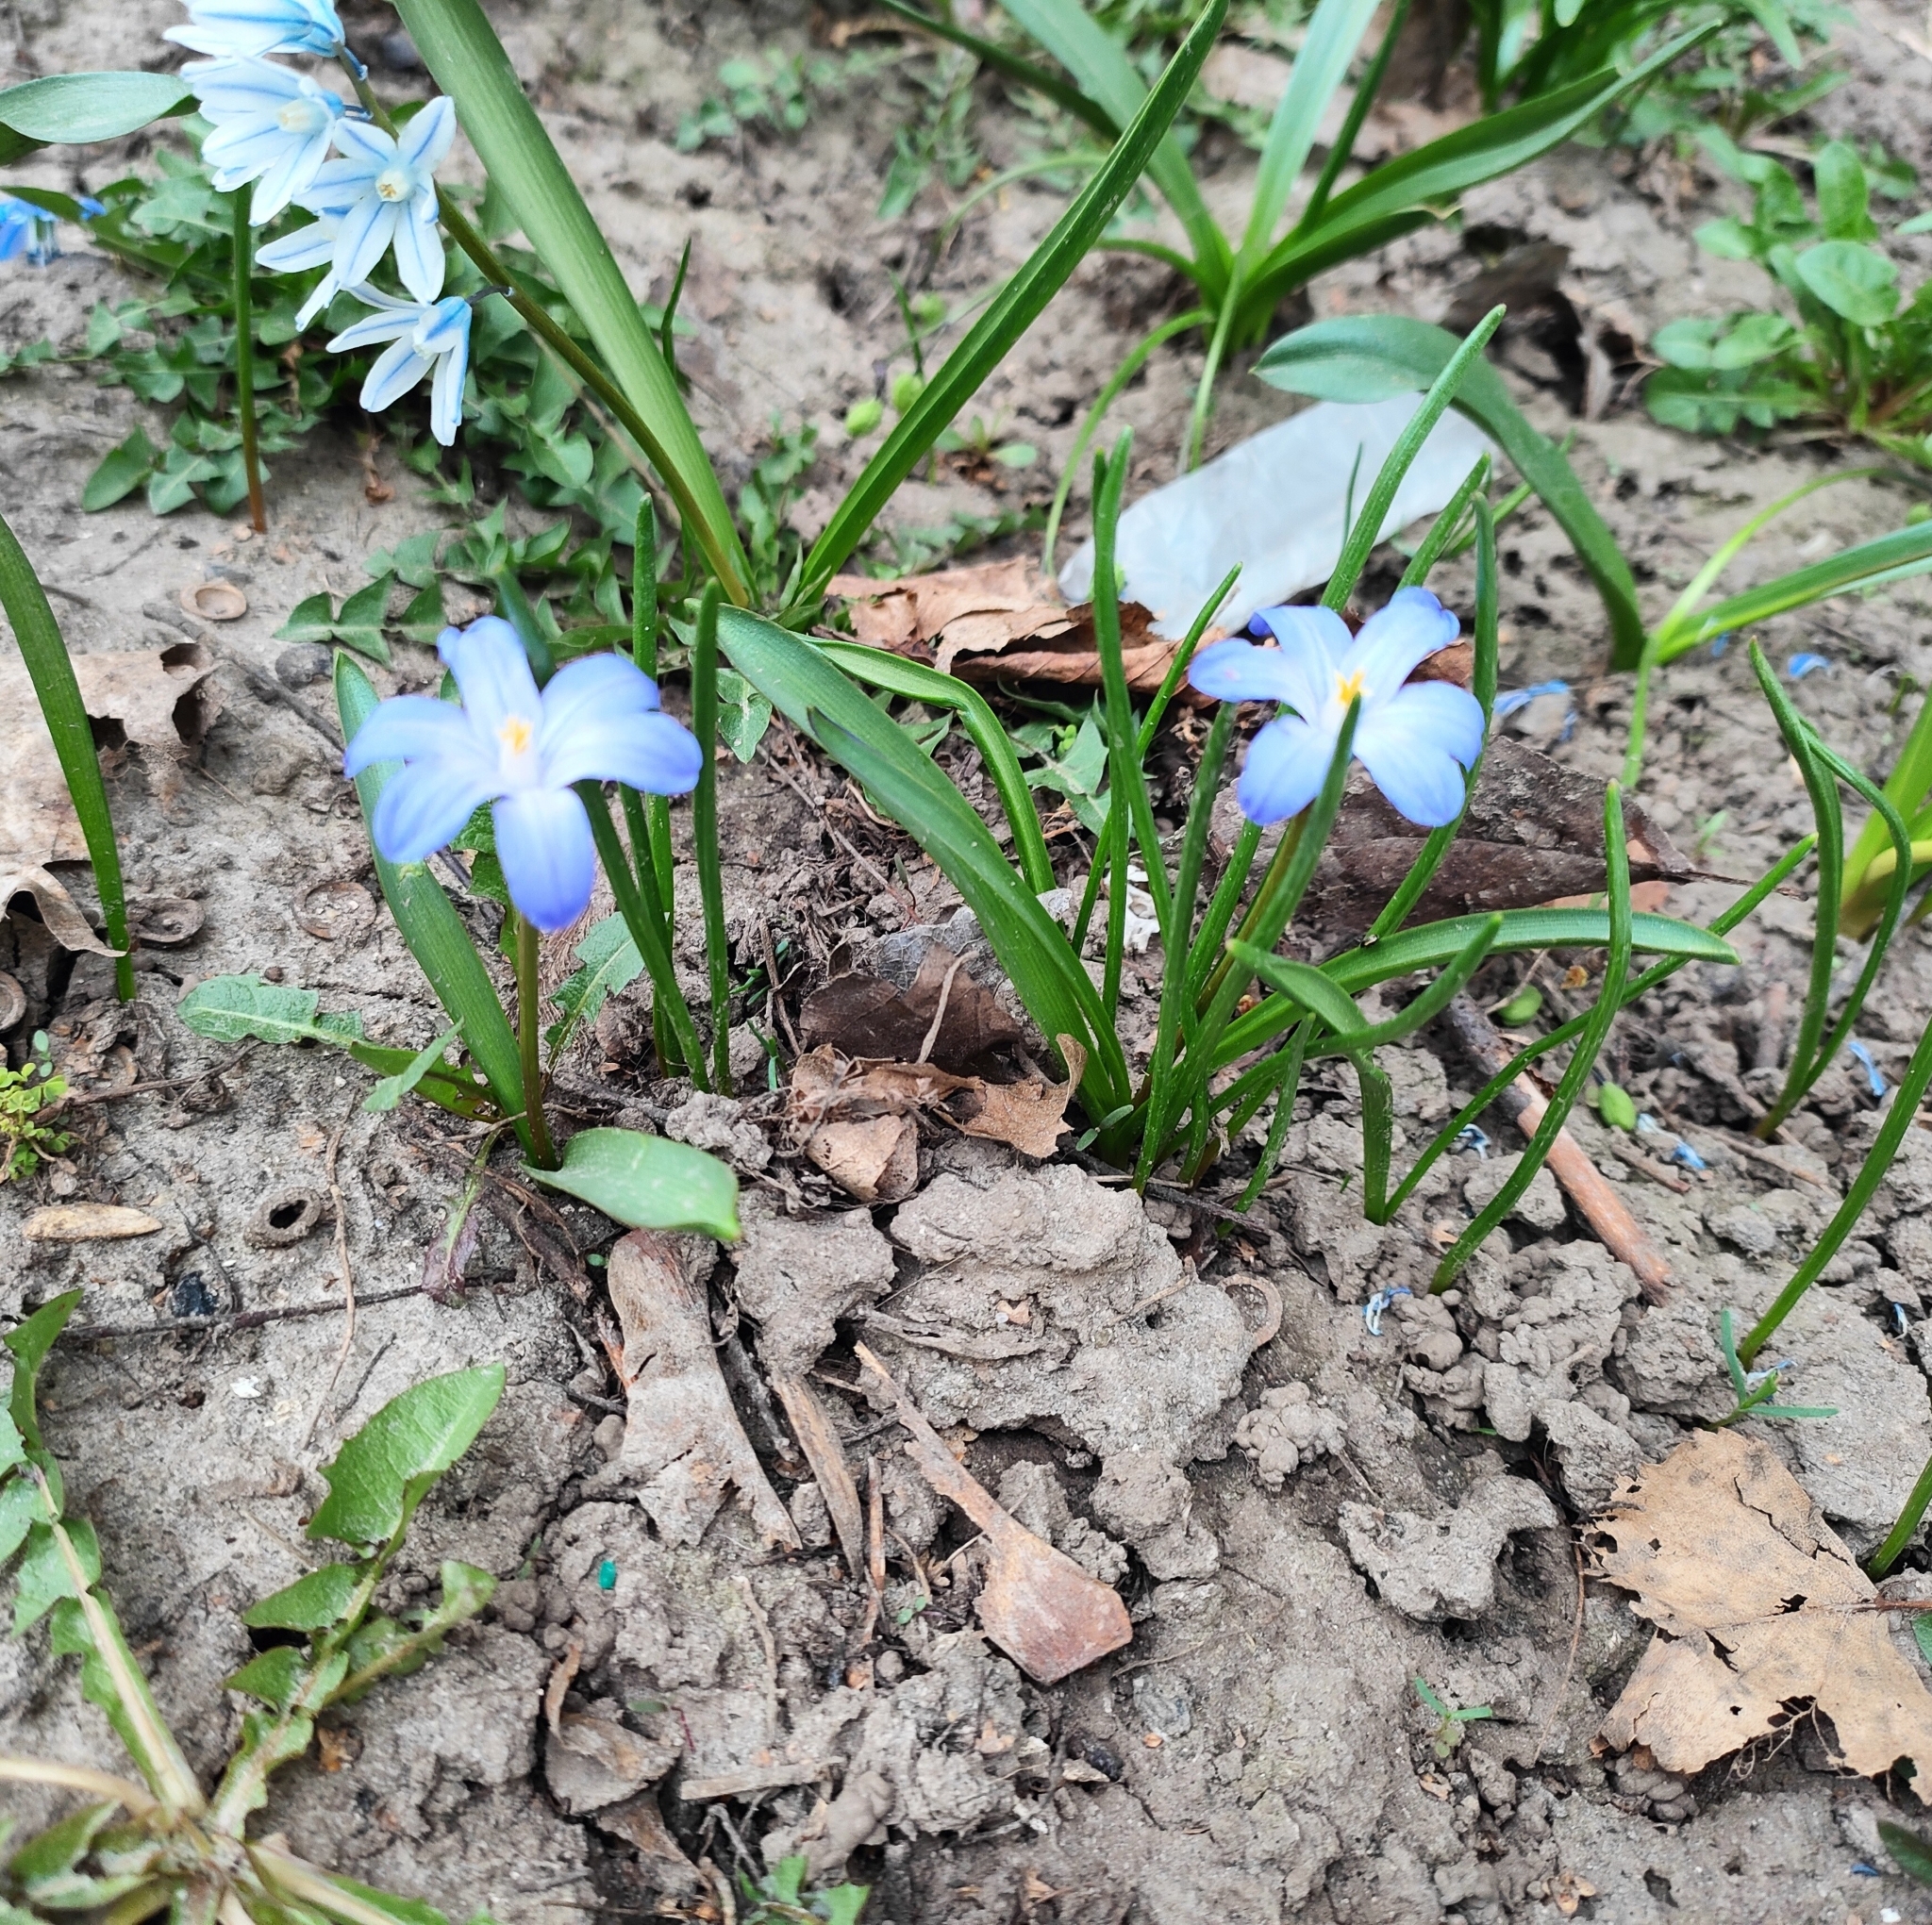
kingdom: Plantae
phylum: Tracheophyta
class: Liliopsida
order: Asparagales
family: Asparagaceae
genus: Scilla
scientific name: Scilla luciliae
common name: Boissier's glory-of-the-snow
